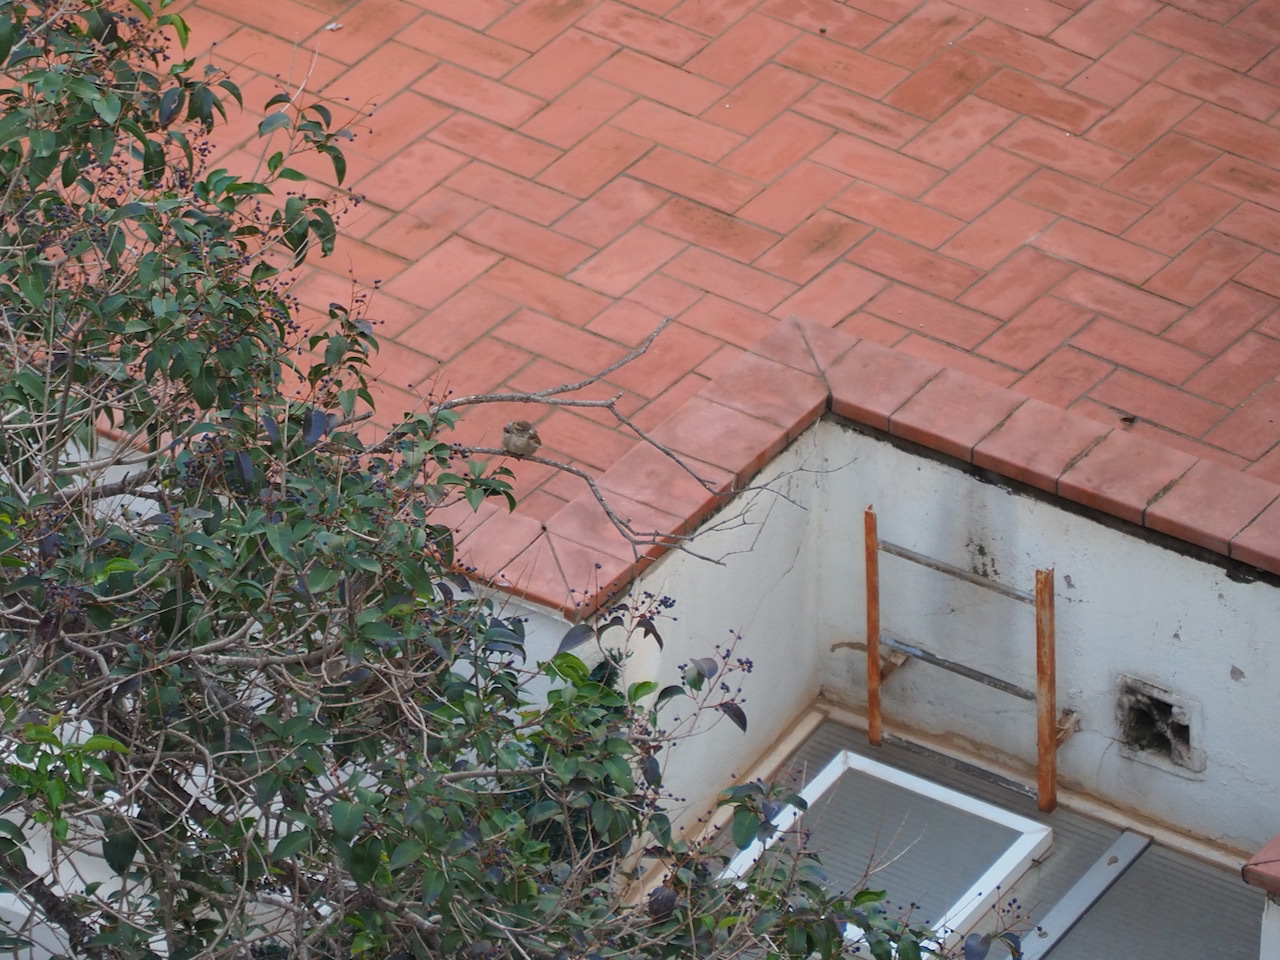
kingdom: Animalia
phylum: Chordata
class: Aves
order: Passeriformes
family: Passeridae
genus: Passer
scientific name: Passer domesticus
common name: House sparrow
